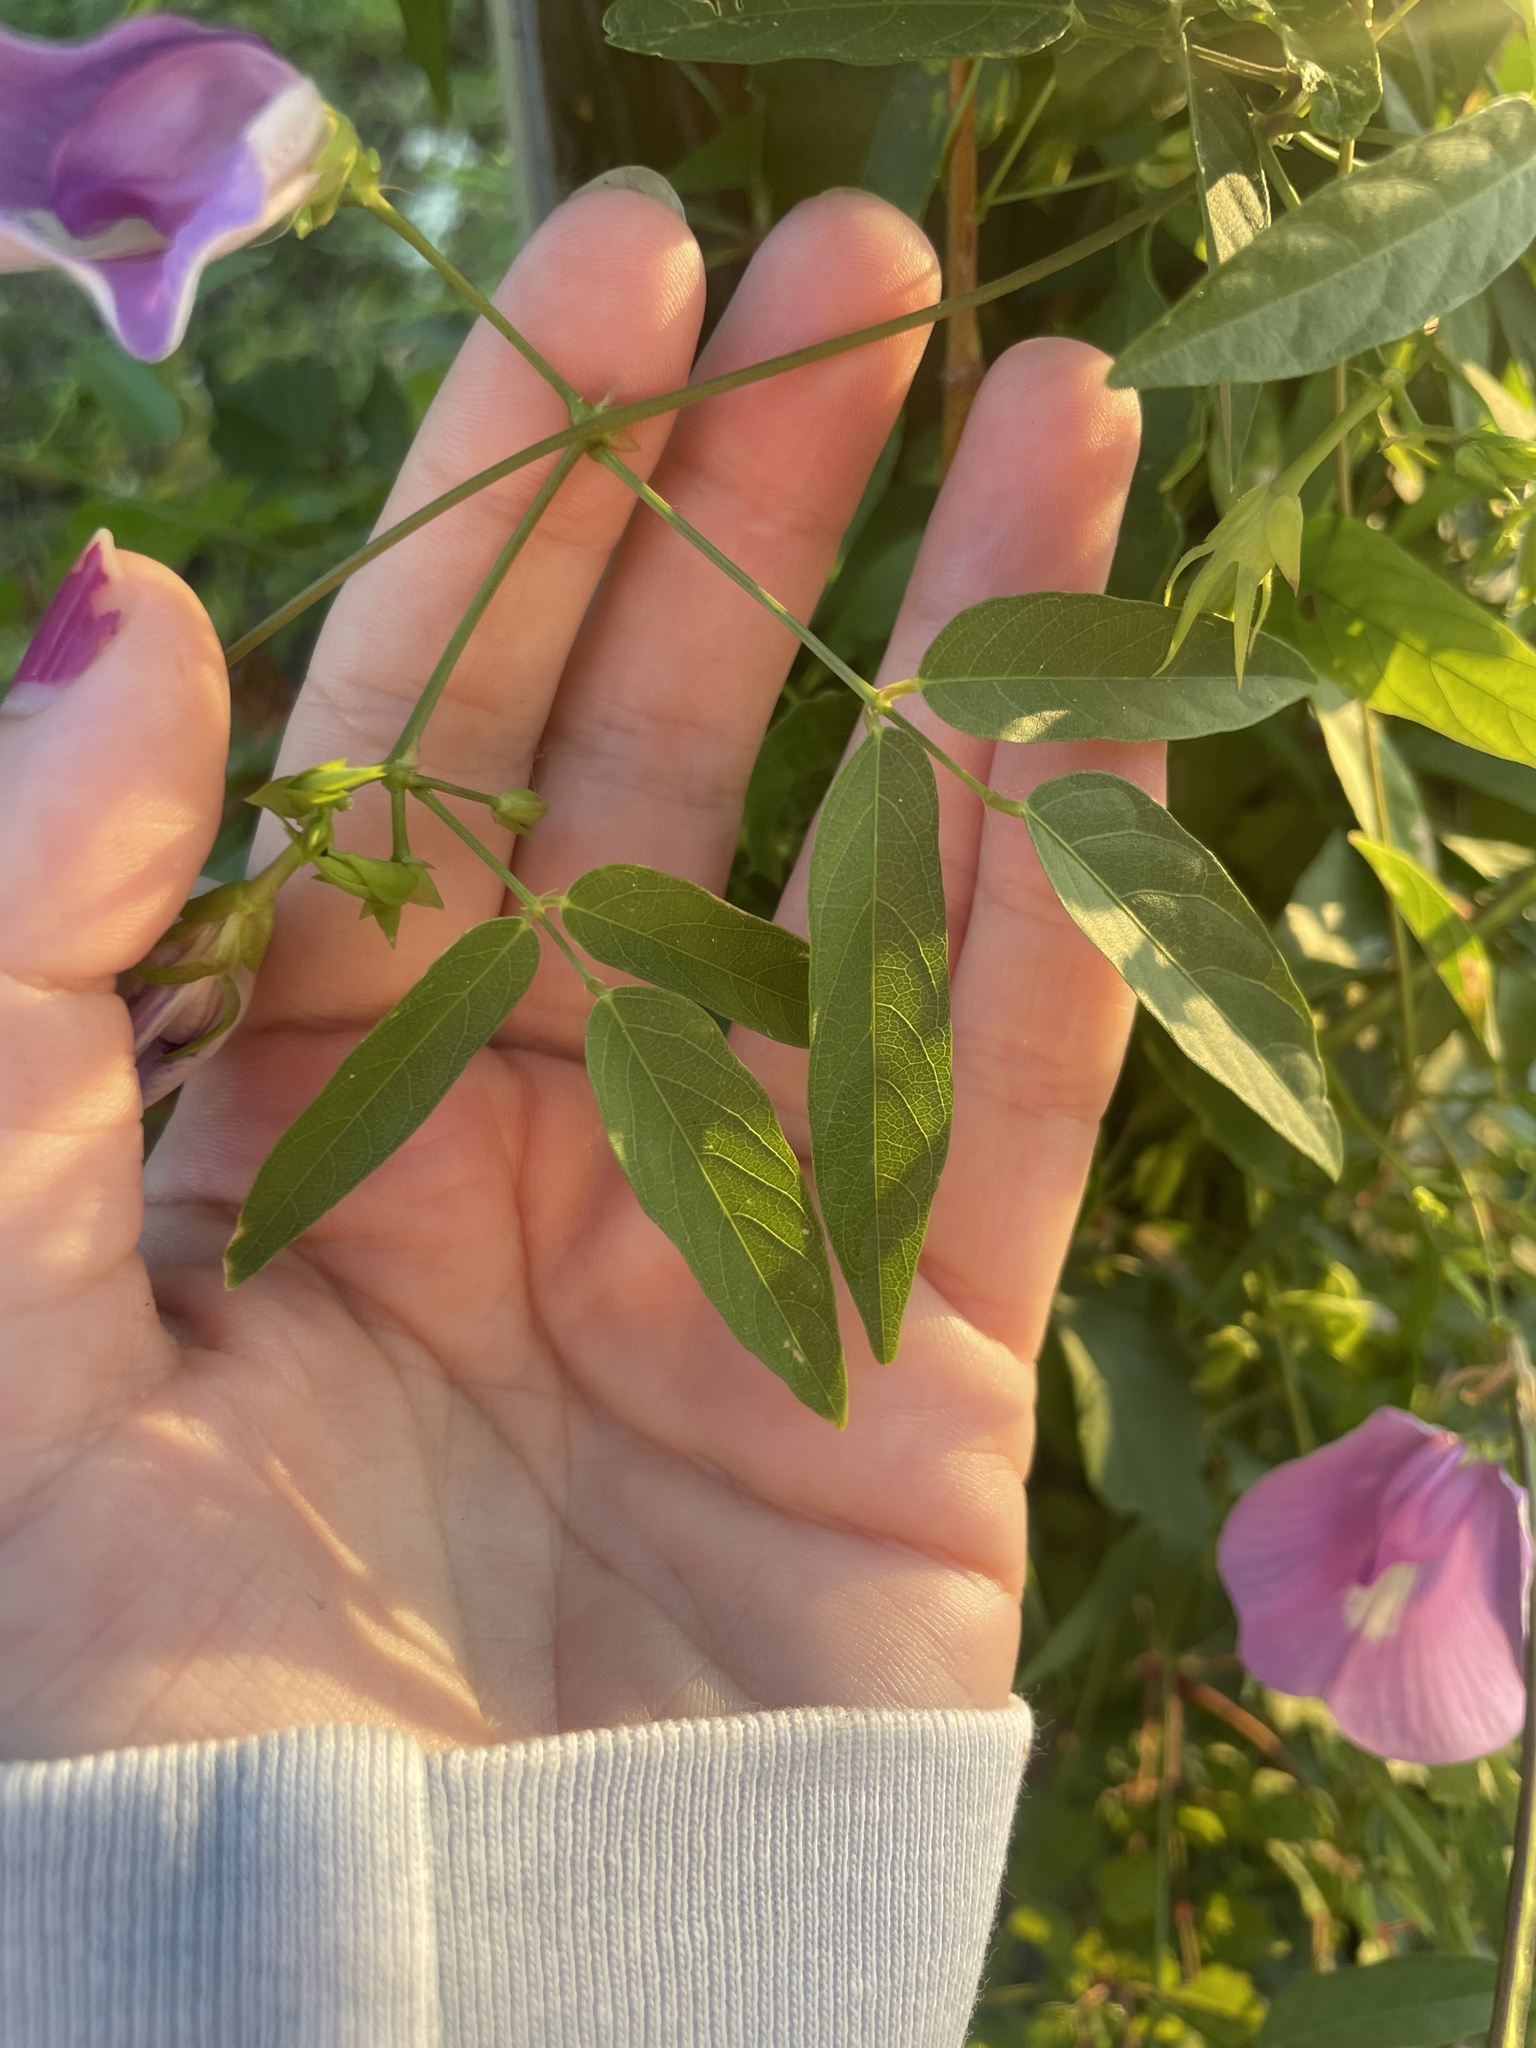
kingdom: Plantae
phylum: Tracheophyta
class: Magnoliopsida
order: Fabales
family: Fabaceae
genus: Centrosema
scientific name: Centrosema virginianum
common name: Butterfly-pea
